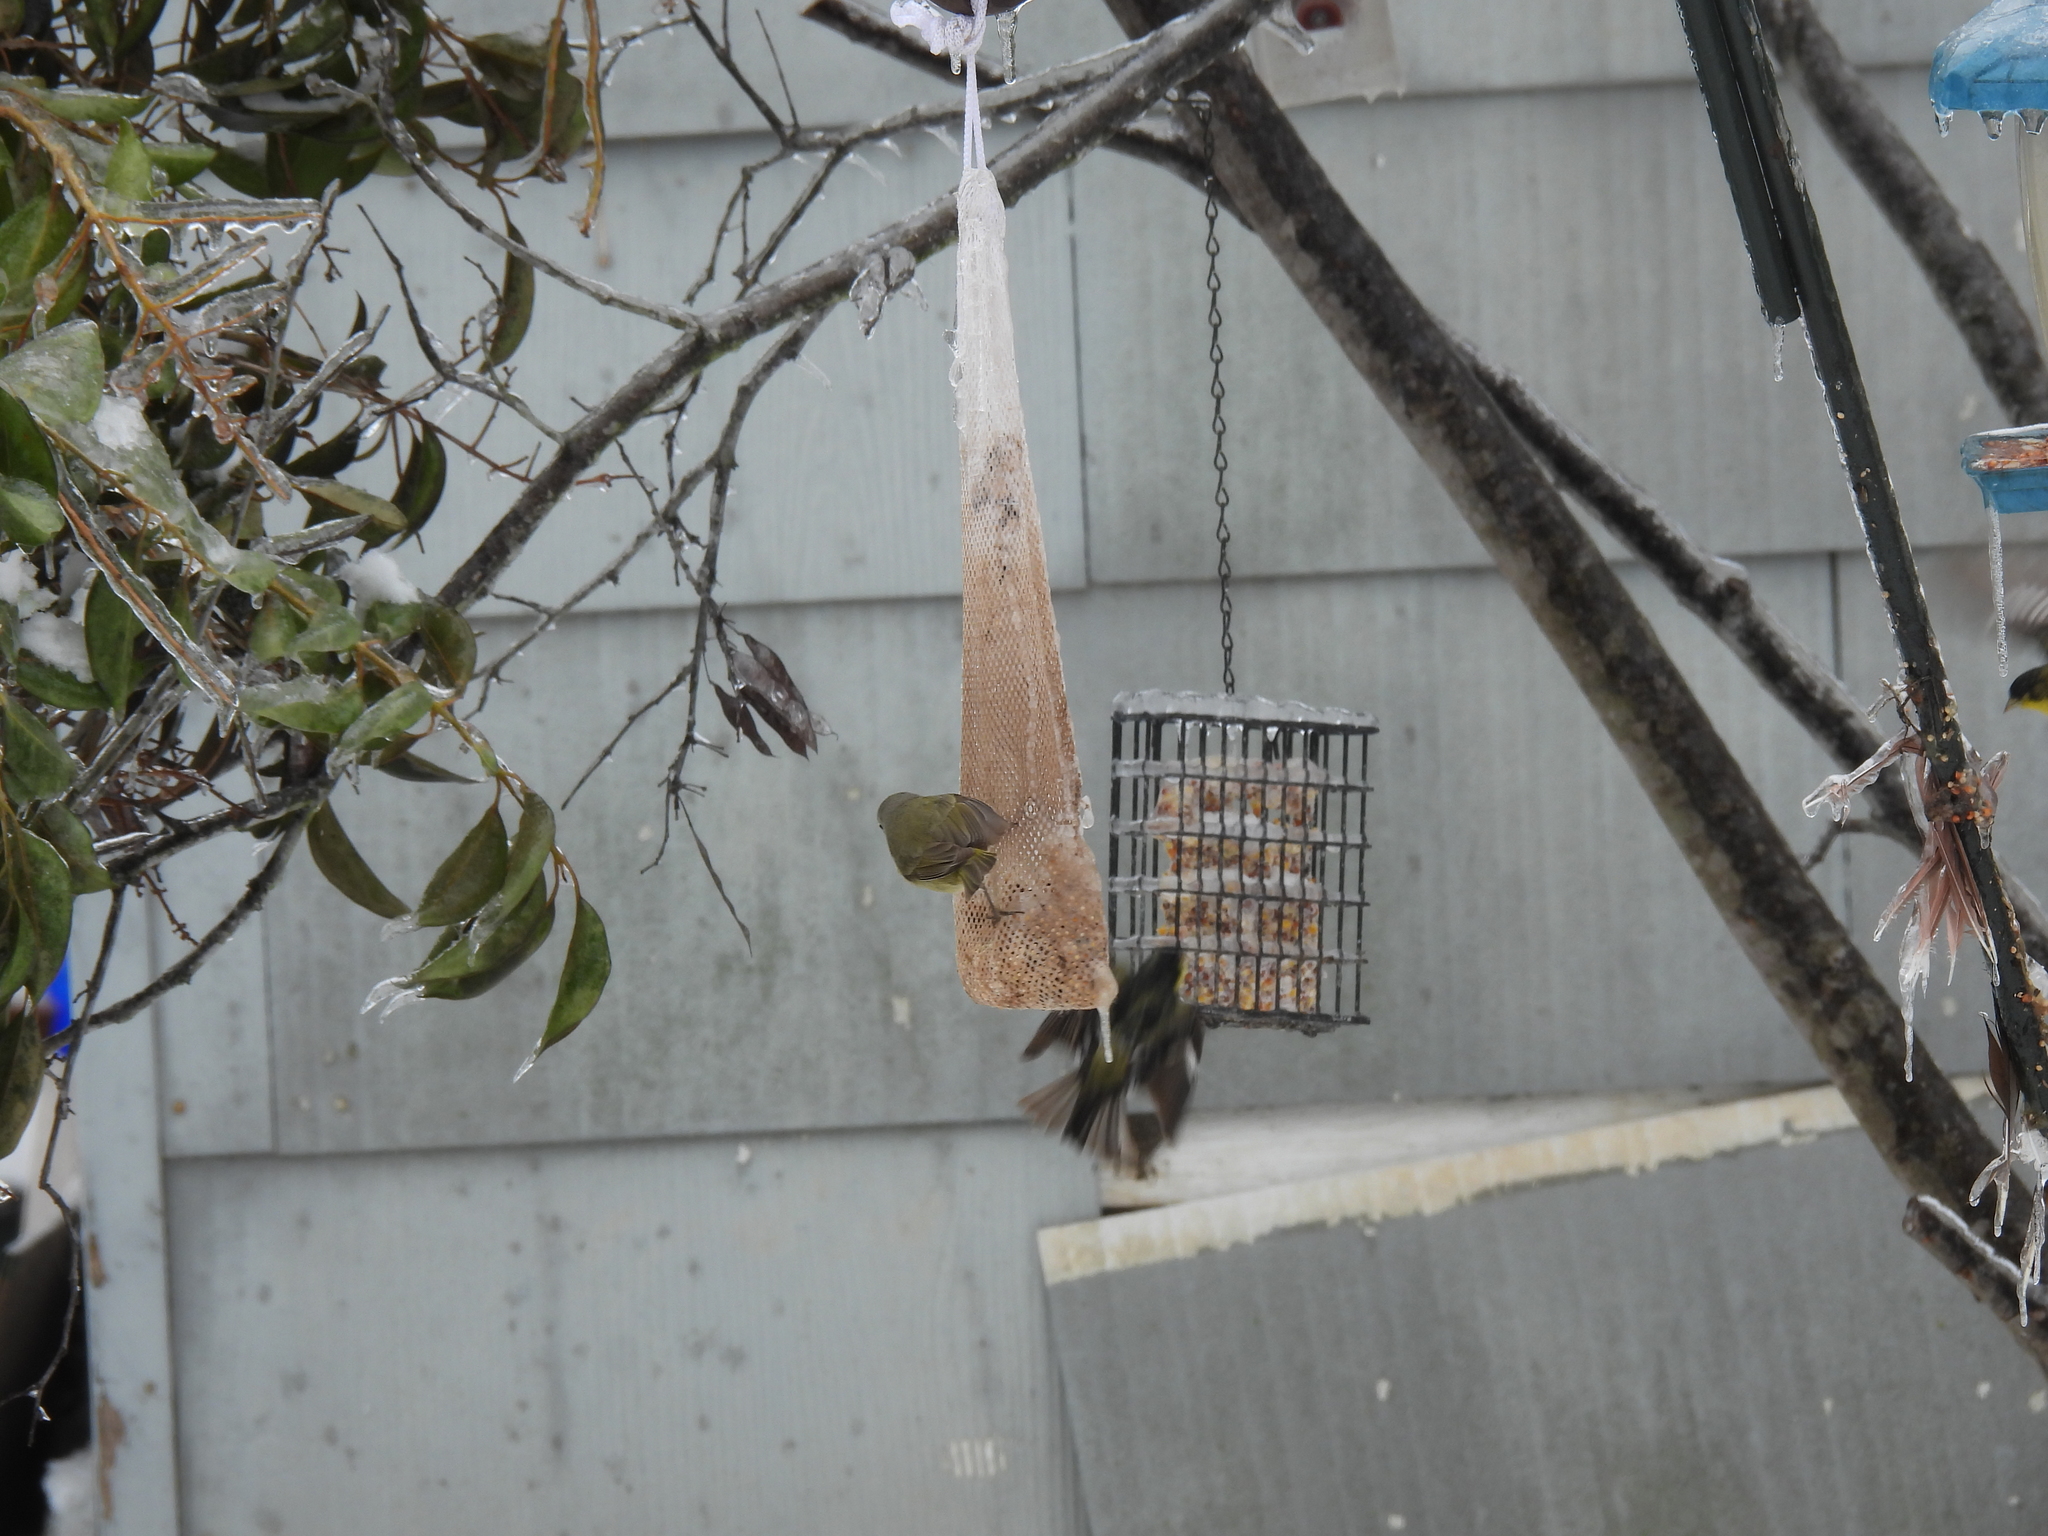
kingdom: Animalia
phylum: Chordata
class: Aves
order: Passeriformes
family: Parulidae
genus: Leiothlypis
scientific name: Leiothlypis celata
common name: Orange-crowned warbler
